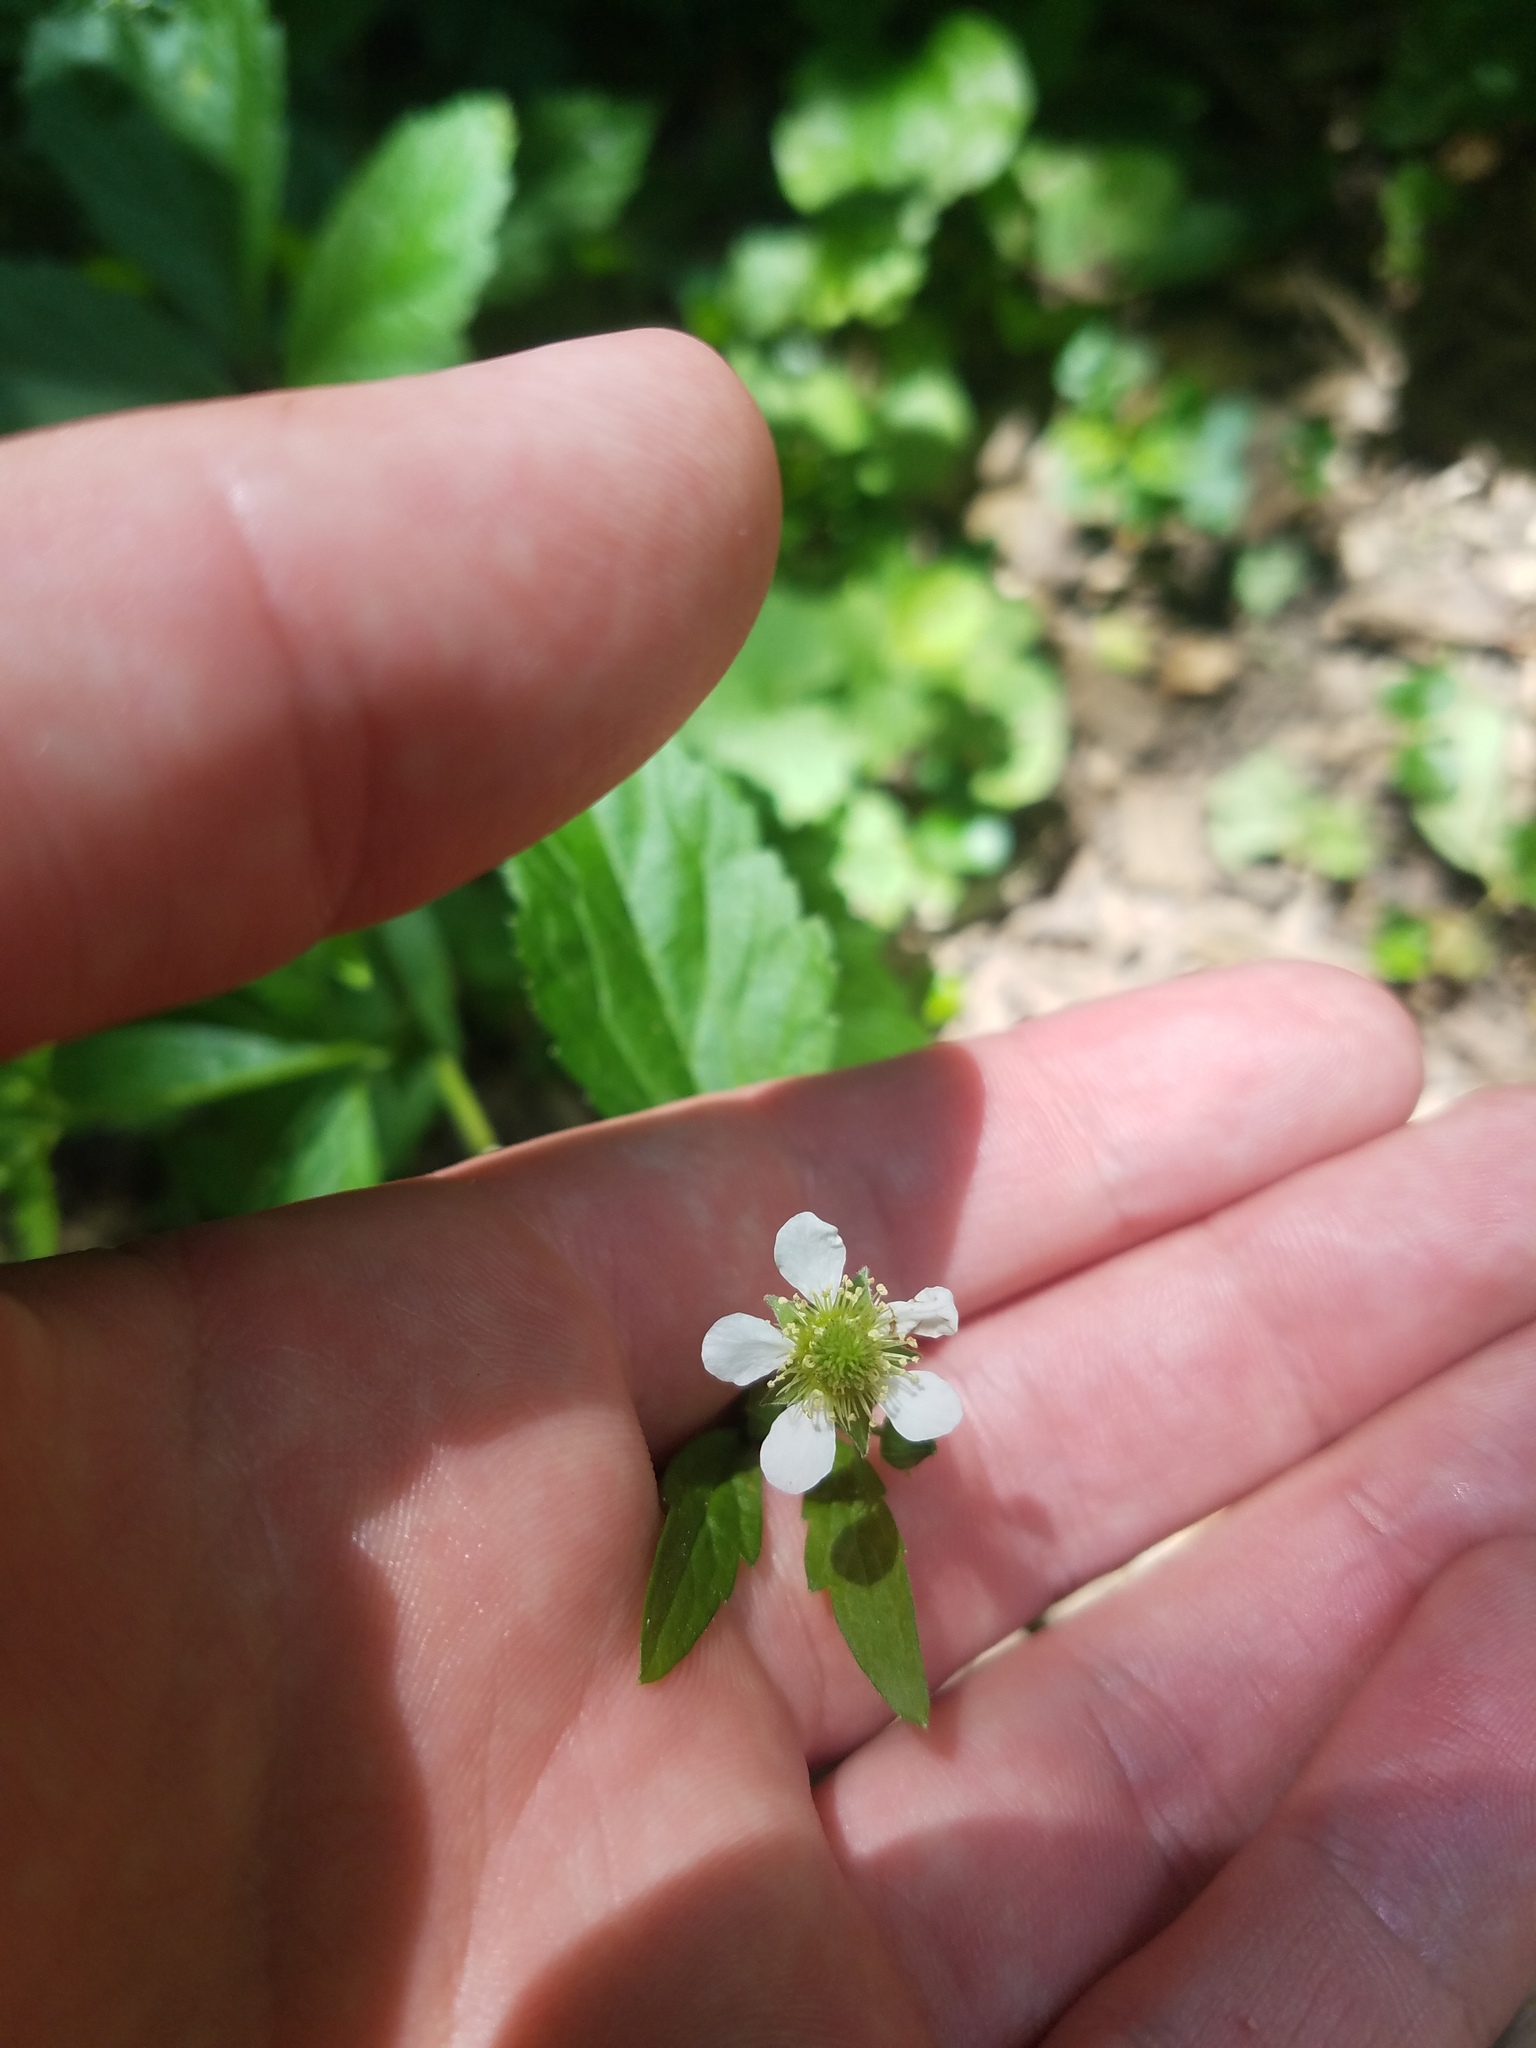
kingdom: Plantae
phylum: Tracheophyta
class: Magnoliopsida
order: Rosales
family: Rosaceae
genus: Geum
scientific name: Geum canadense
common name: White avens
